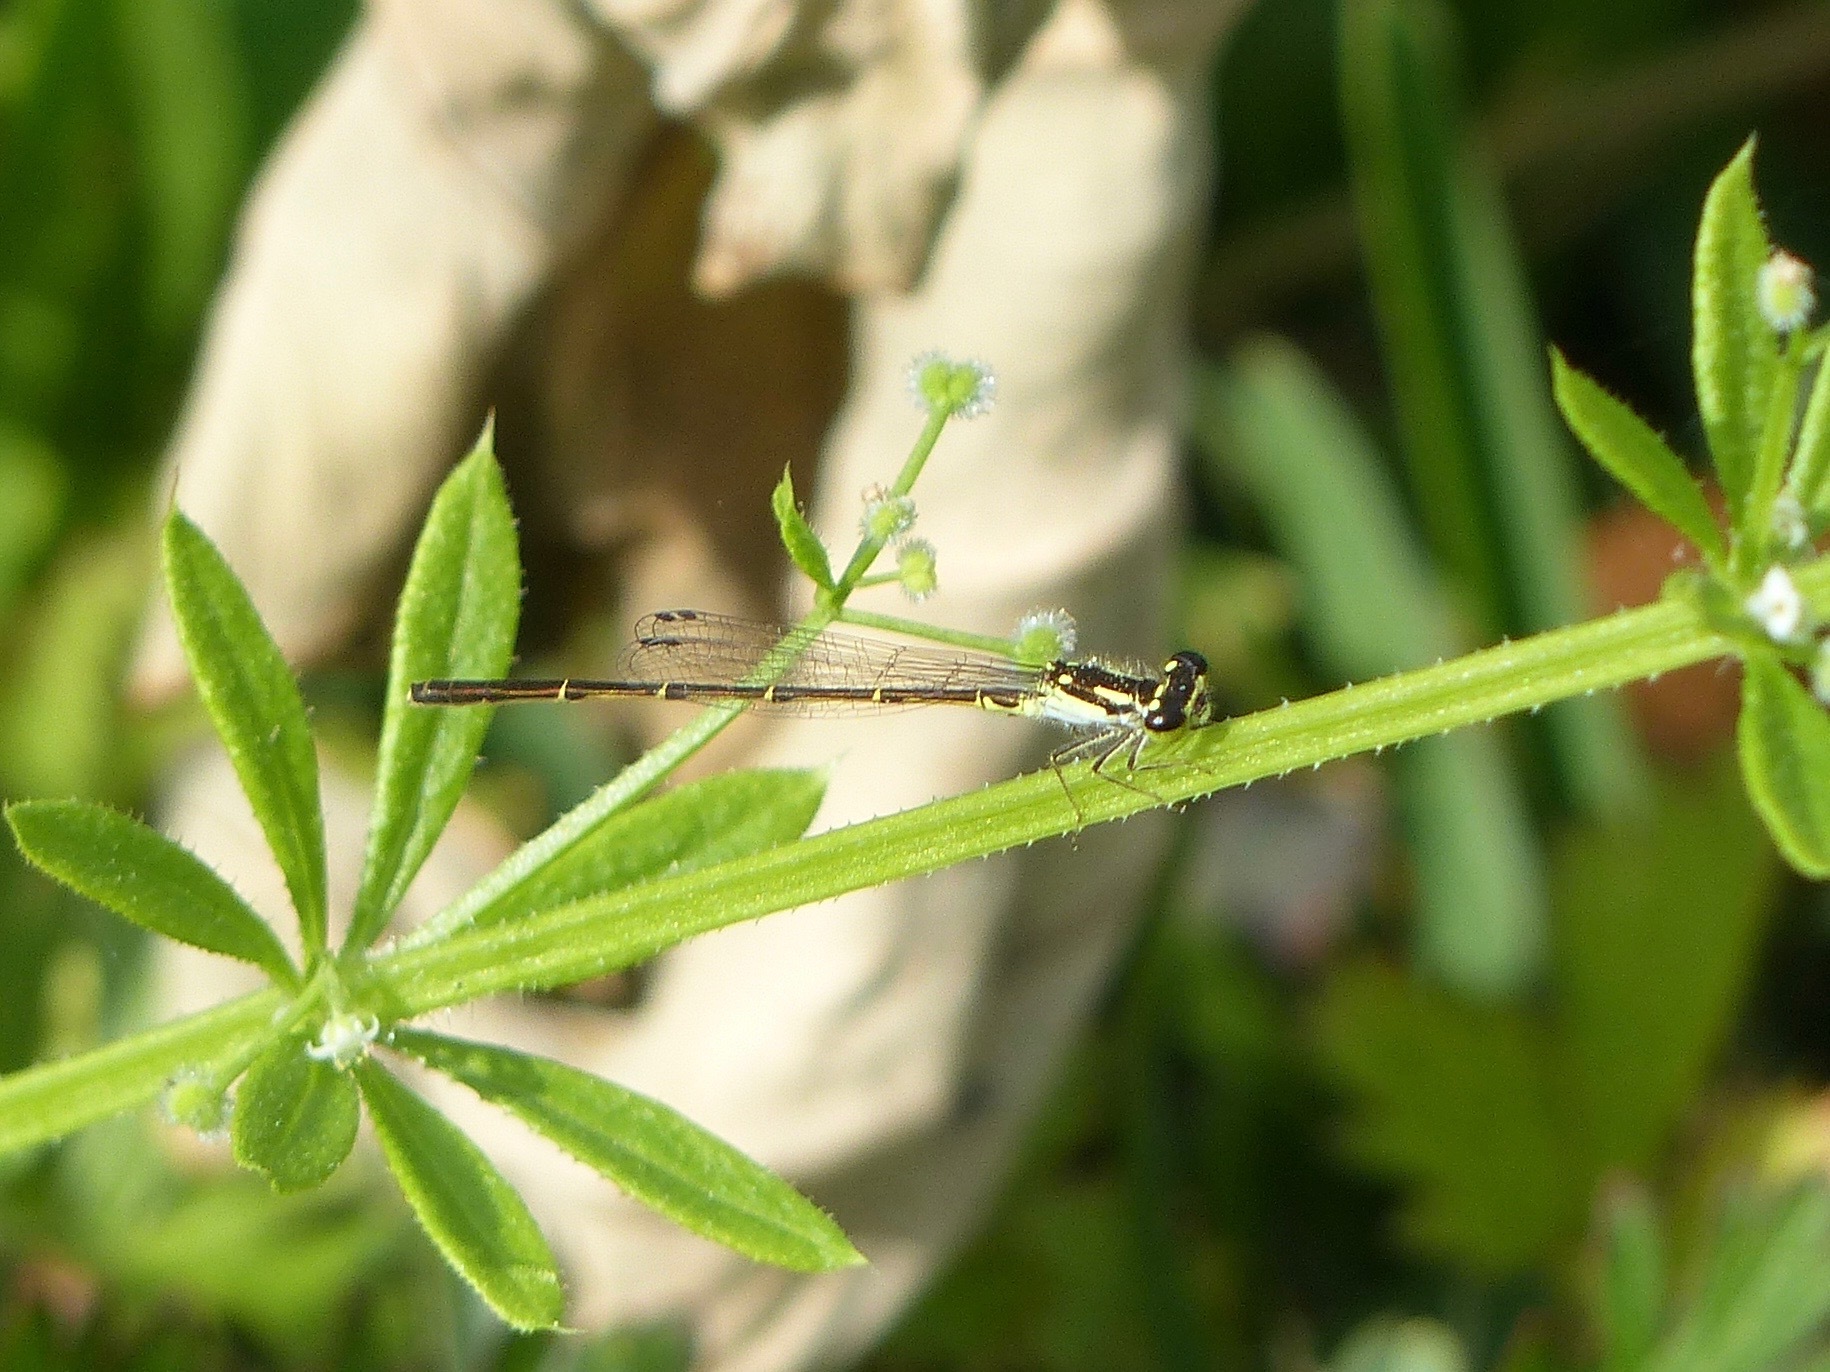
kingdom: Animalia
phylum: Arthropoda
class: Insecta
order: Odonata
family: Coenagrionidae
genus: Ischnura
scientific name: Ischnura posita
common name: Fragile forktail
